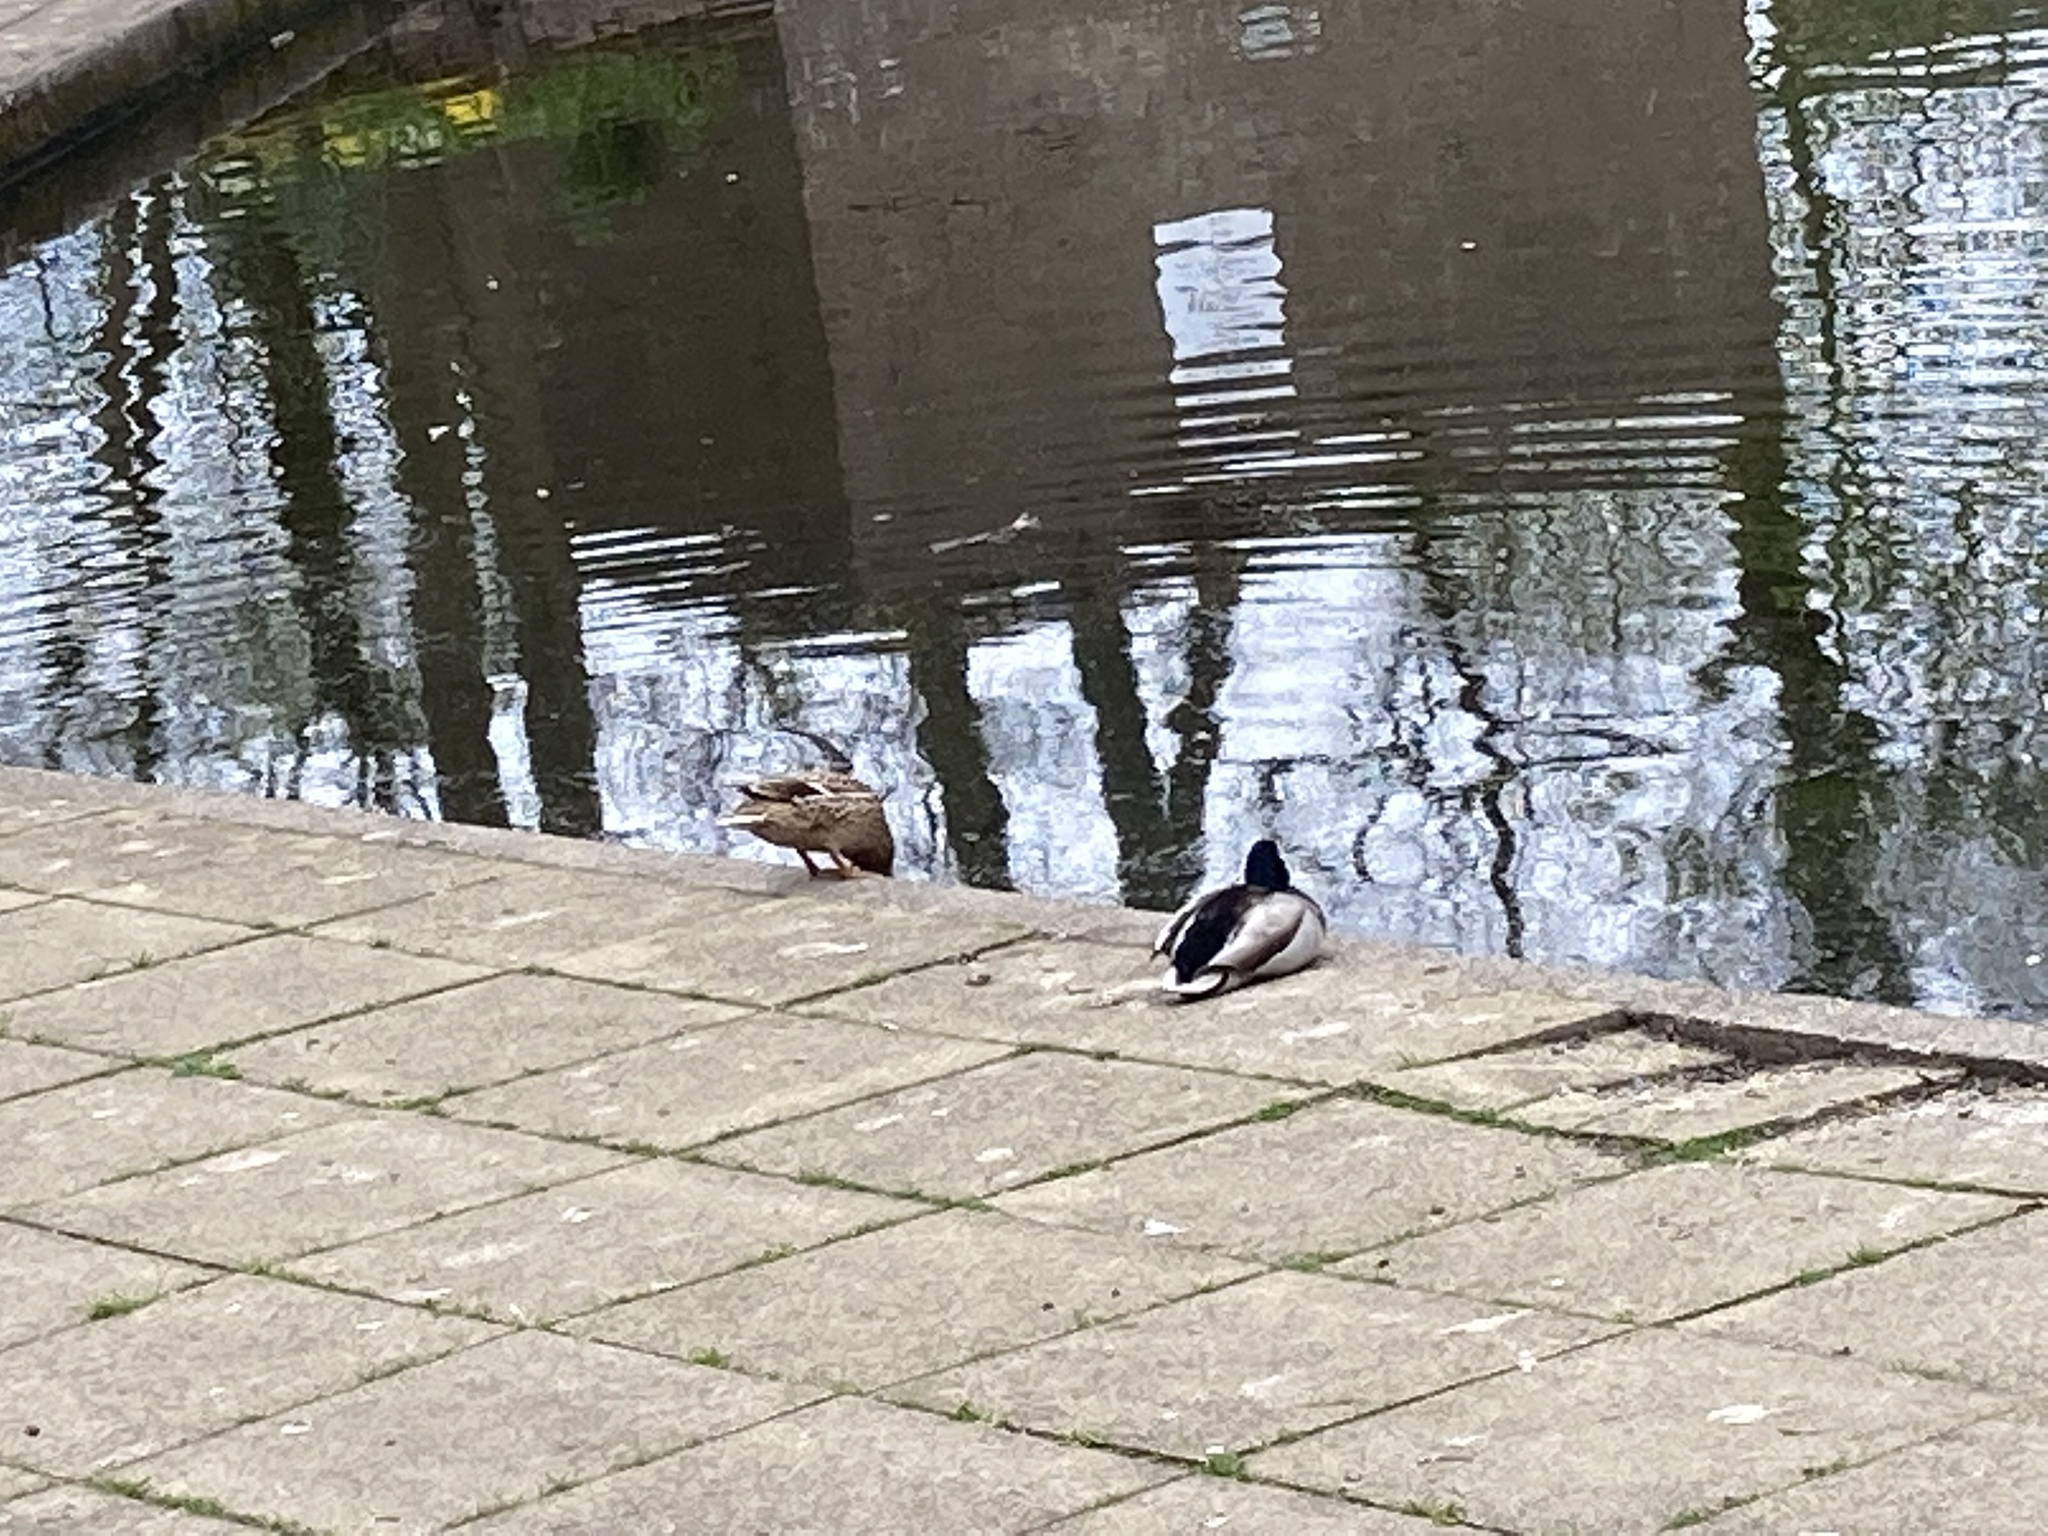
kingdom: Animalia
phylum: Chordata
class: Aves
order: Anseriformes
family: Anatidae
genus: Anas
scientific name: Anas platyrhynchos
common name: Mallard
